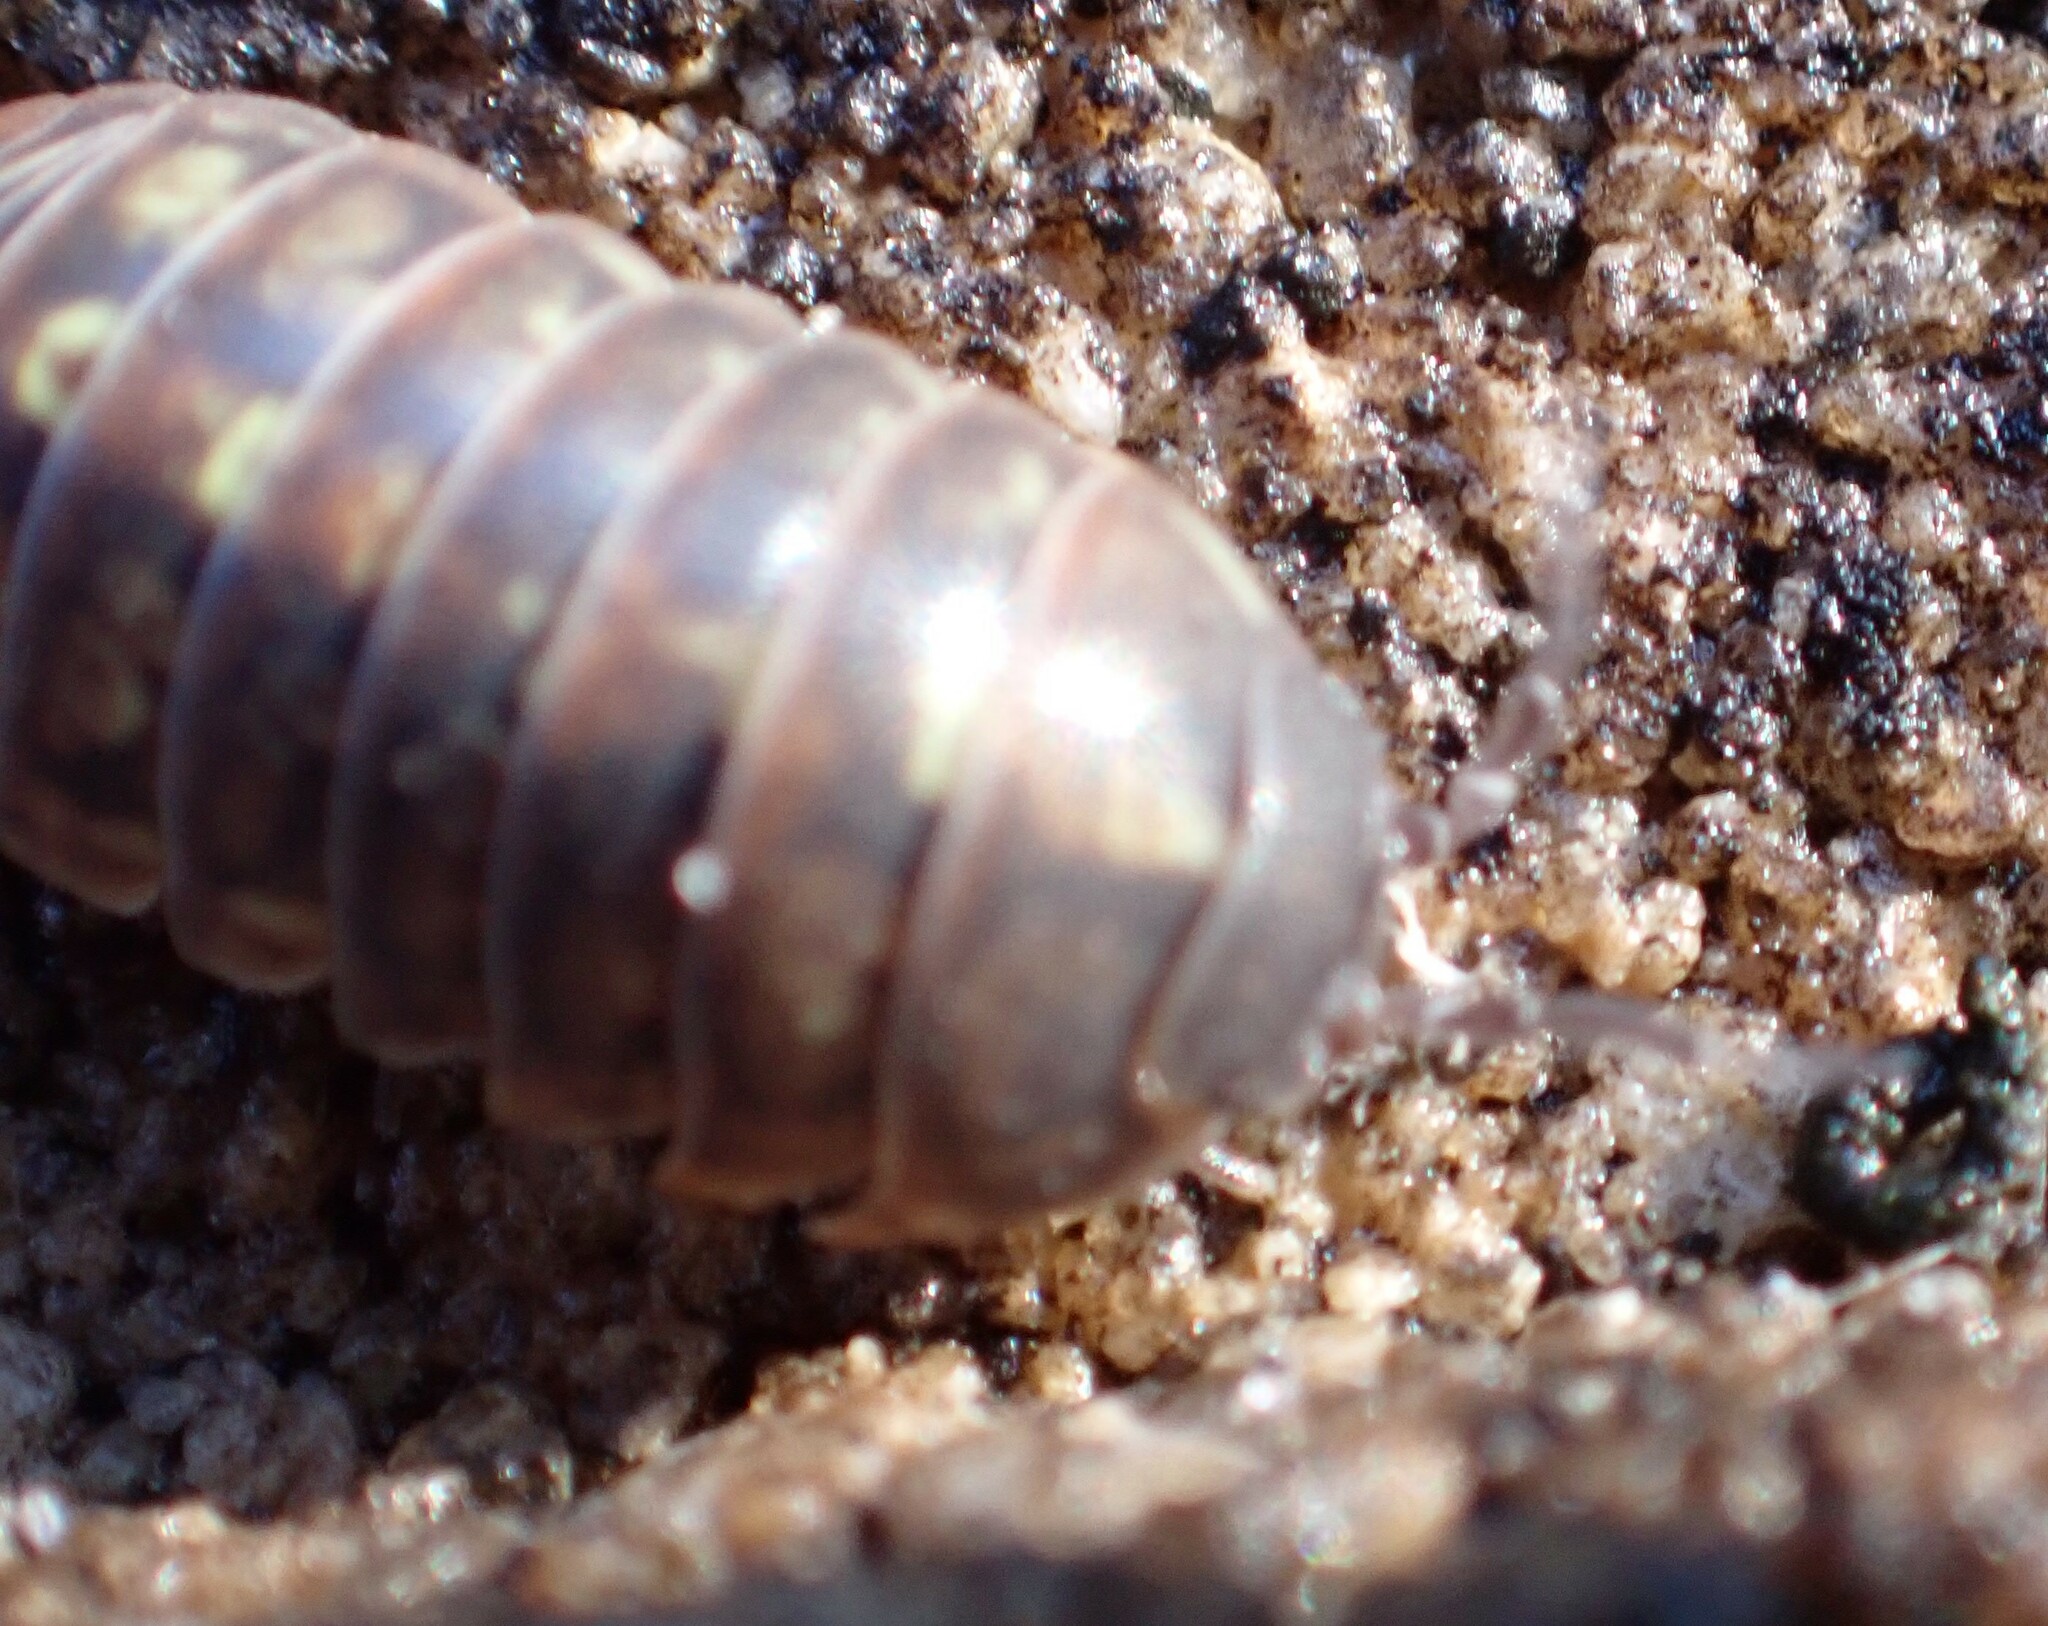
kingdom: Animalia
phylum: Arthropoda
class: Malacostraca
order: Isopoda
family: Armadillidiidae
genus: Armadillidium
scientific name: Armadillidium vulgare
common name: Common pill woodlouse
